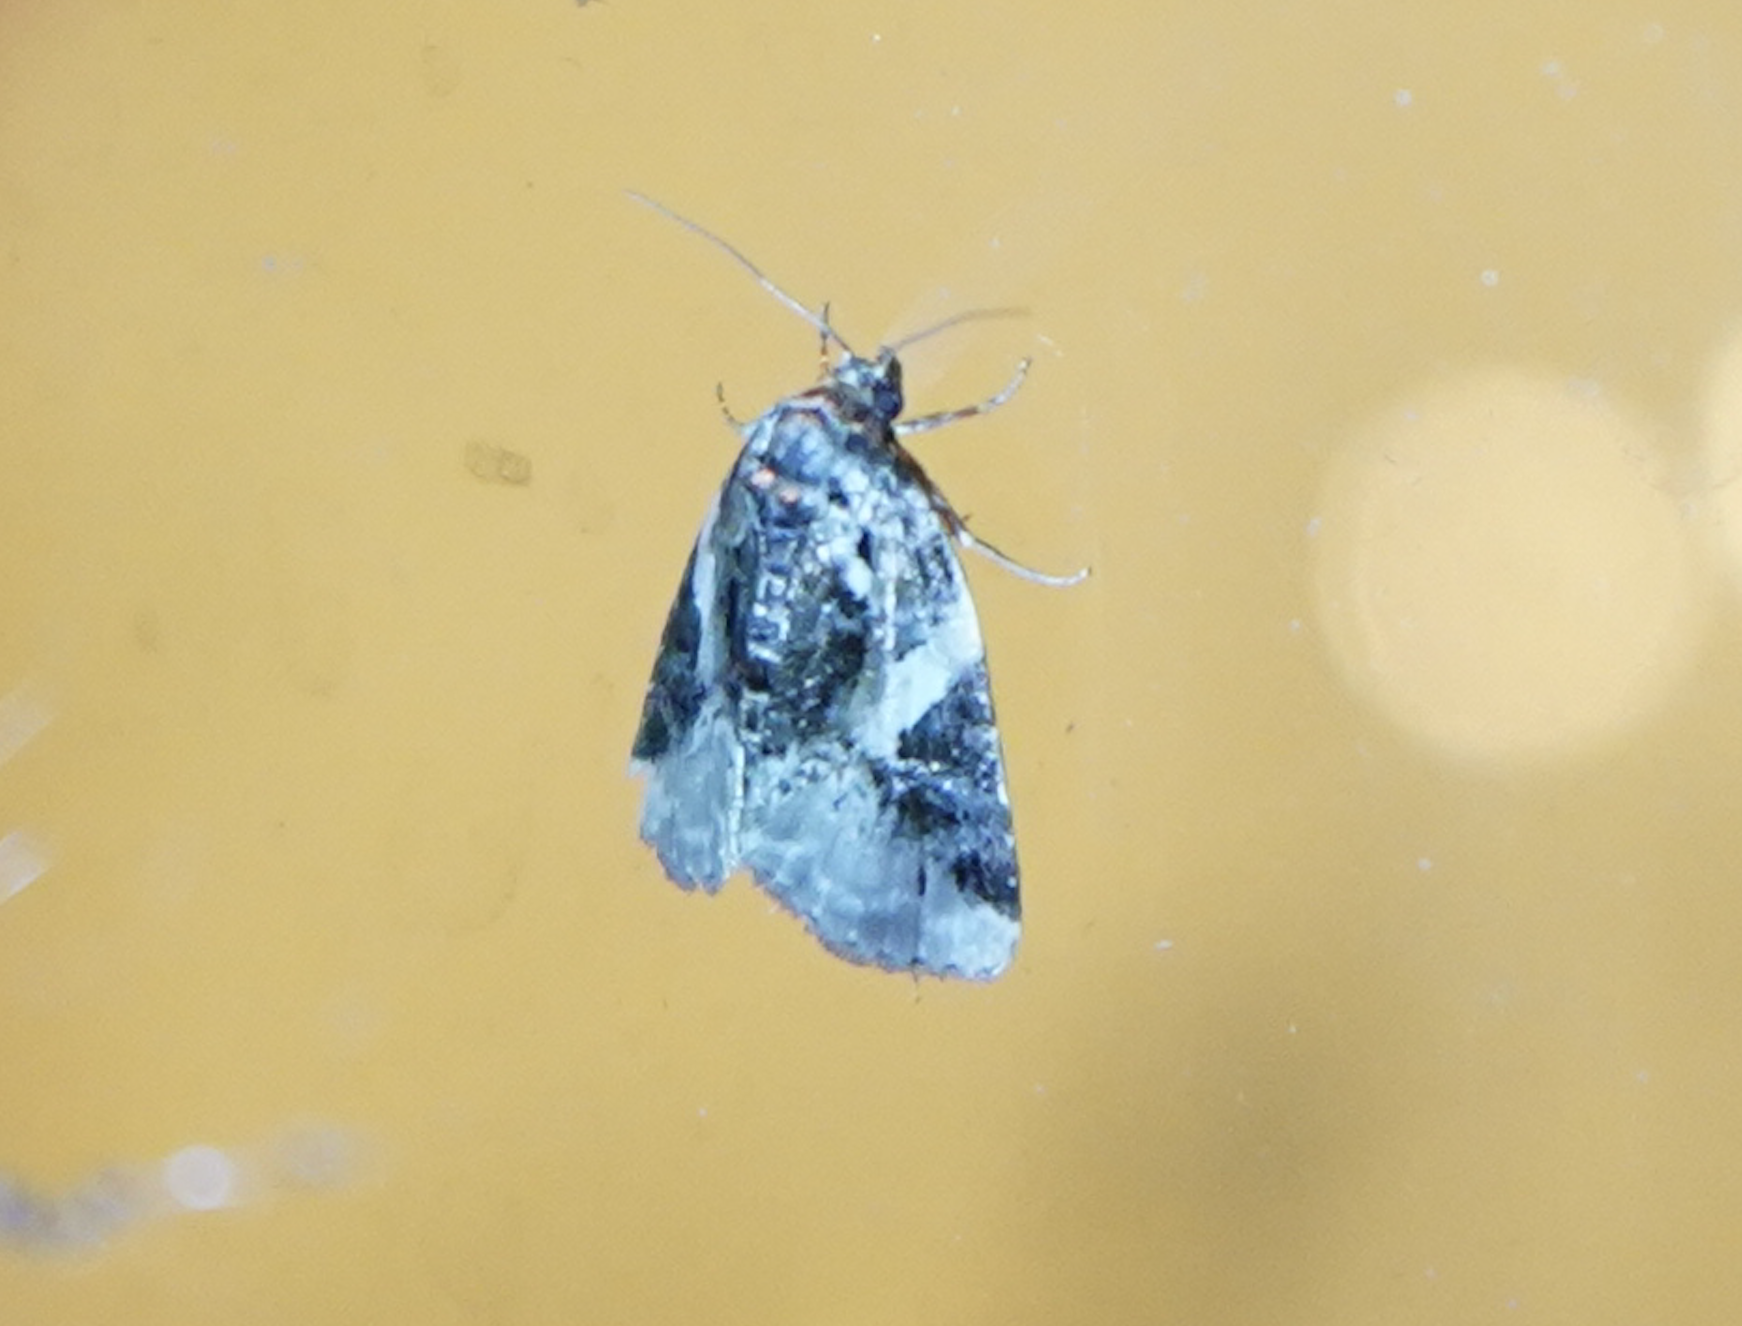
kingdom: Animalia
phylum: Arthropoda
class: Insecta
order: Lepidoptera
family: Noctuidae
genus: Pseudeustrotia
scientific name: Pseudeustrotia carneola
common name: Pink-barred lithacodia moth
